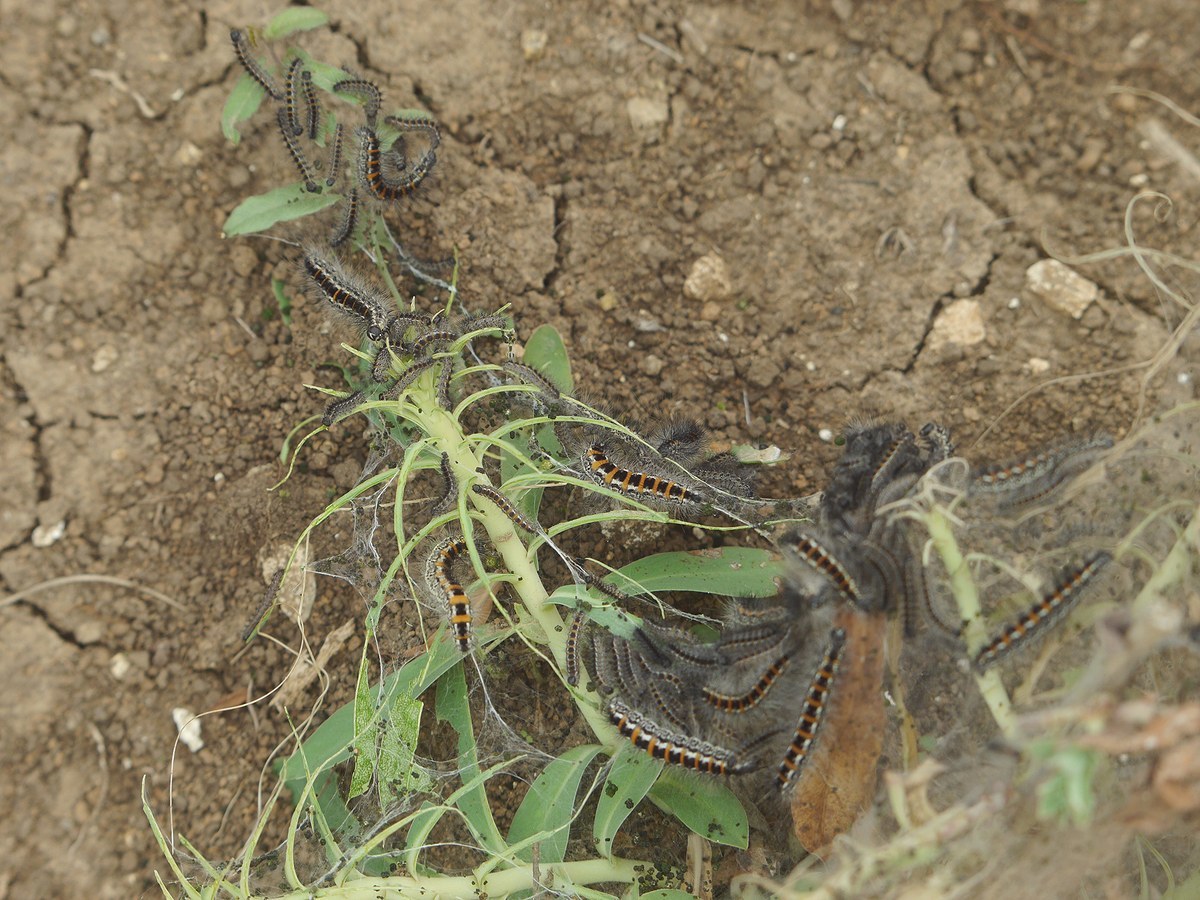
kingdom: Animalia
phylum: Arthropoda
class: Insecta
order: Lepidoptera
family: Noctuidae
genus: Oxicesta
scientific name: Oxicesta geographica
